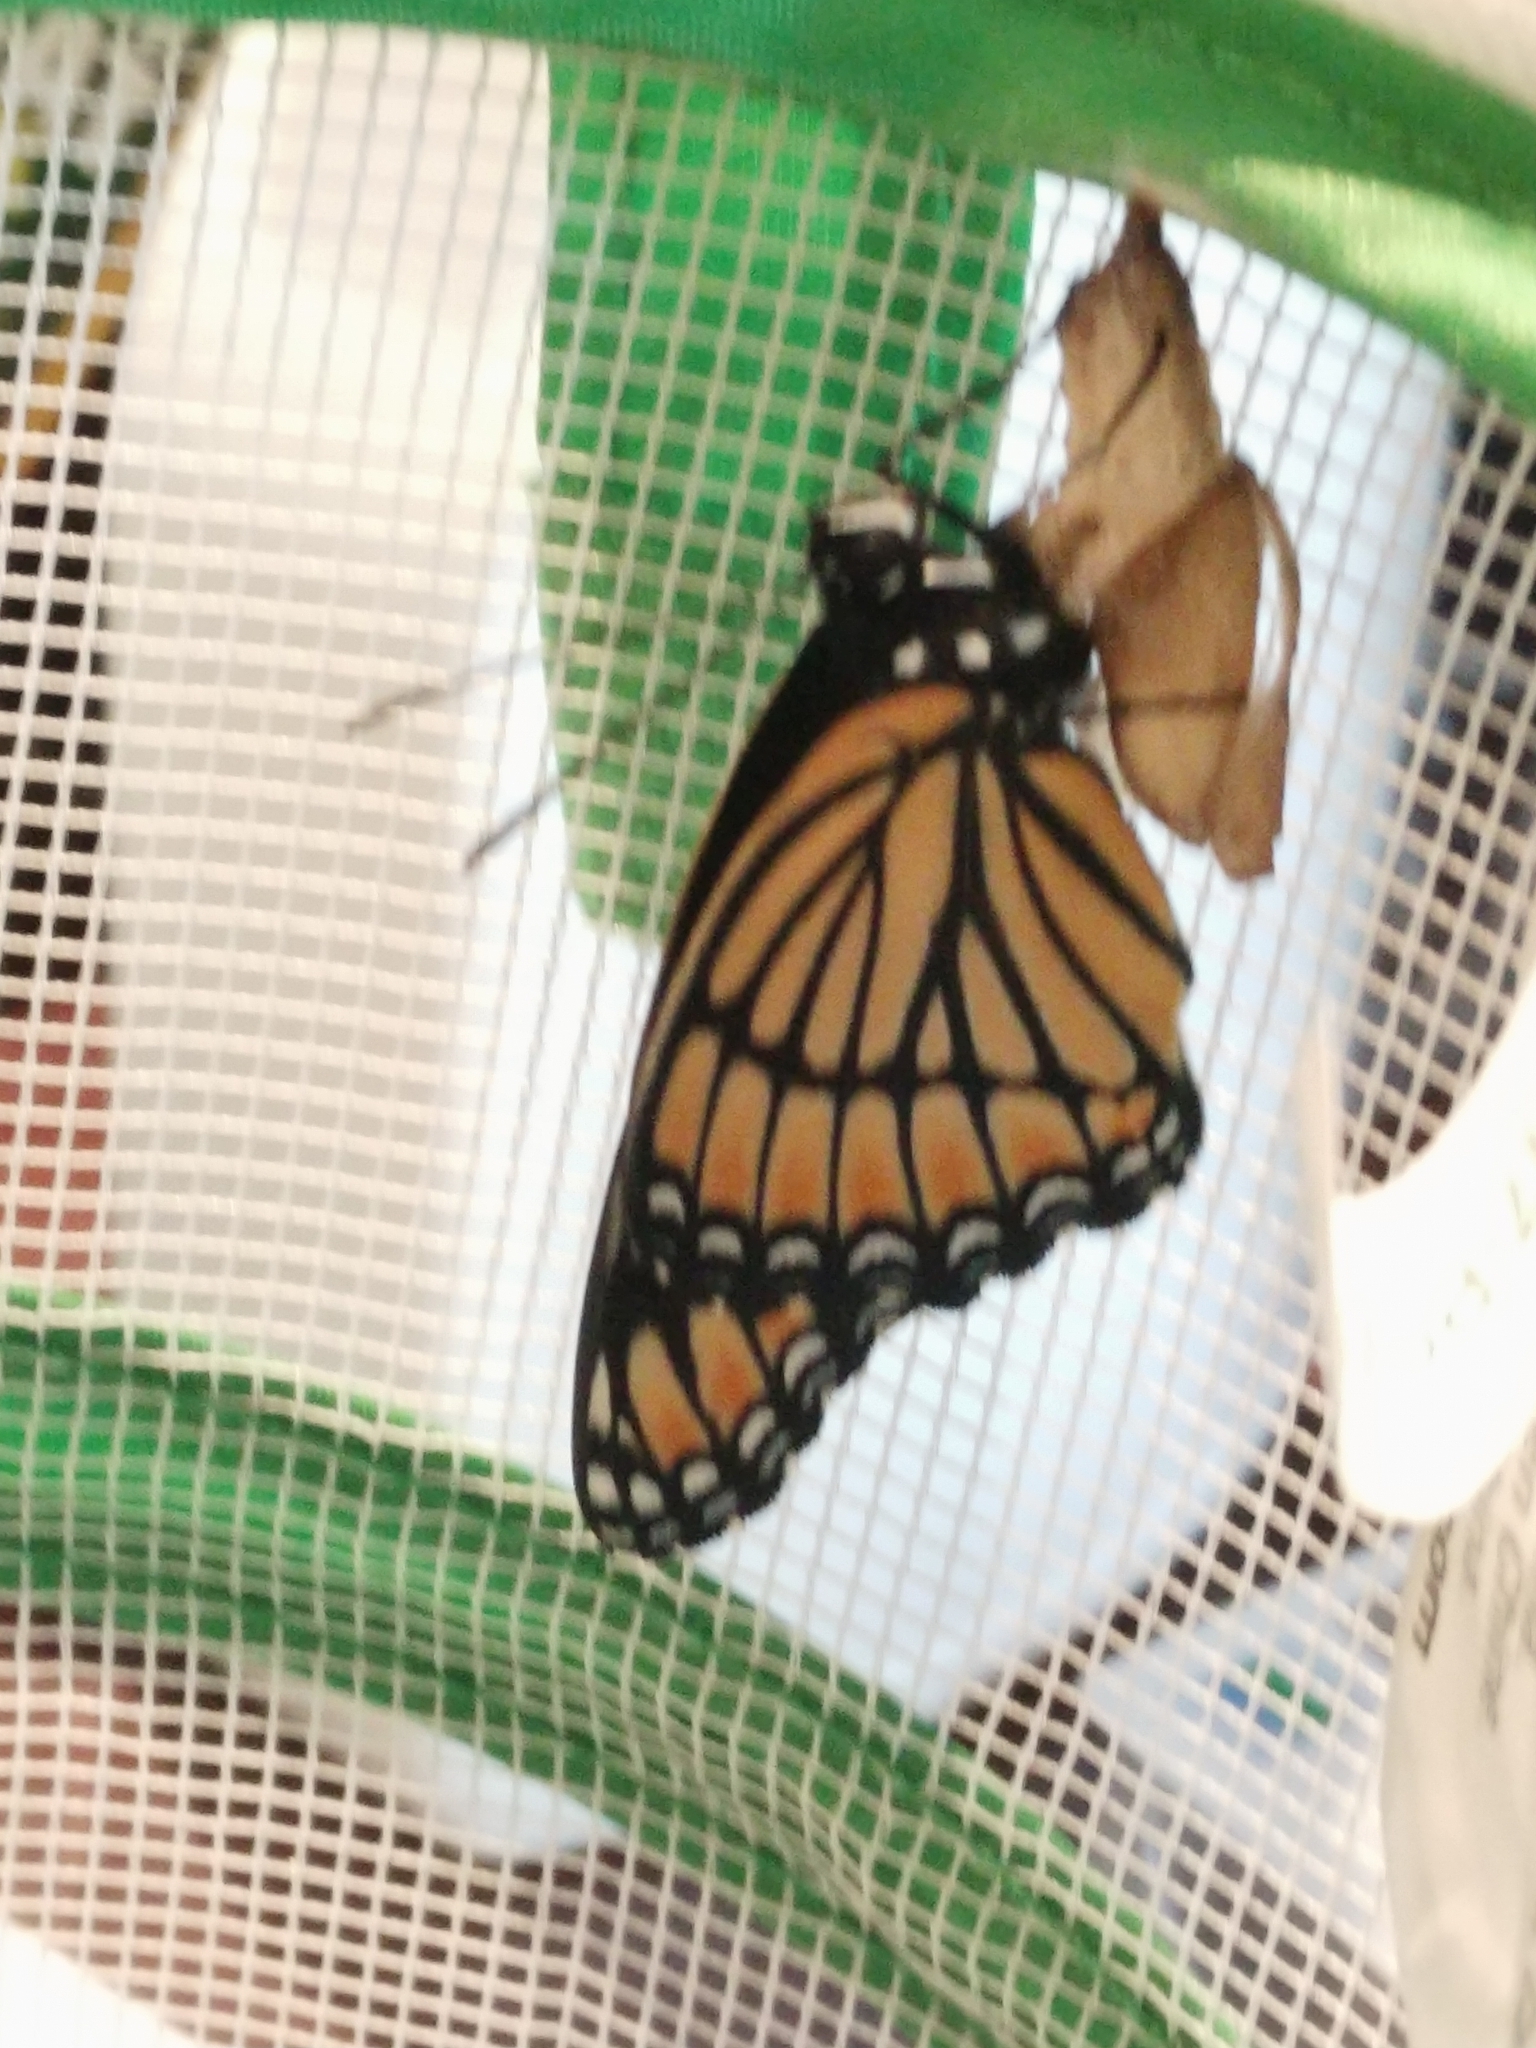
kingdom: Animalia
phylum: Arthropoda
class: Insecta
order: Lepidoptera
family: Nymphalidae
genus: Limenitis
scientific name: Limenitis archippus
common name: Viceroy
